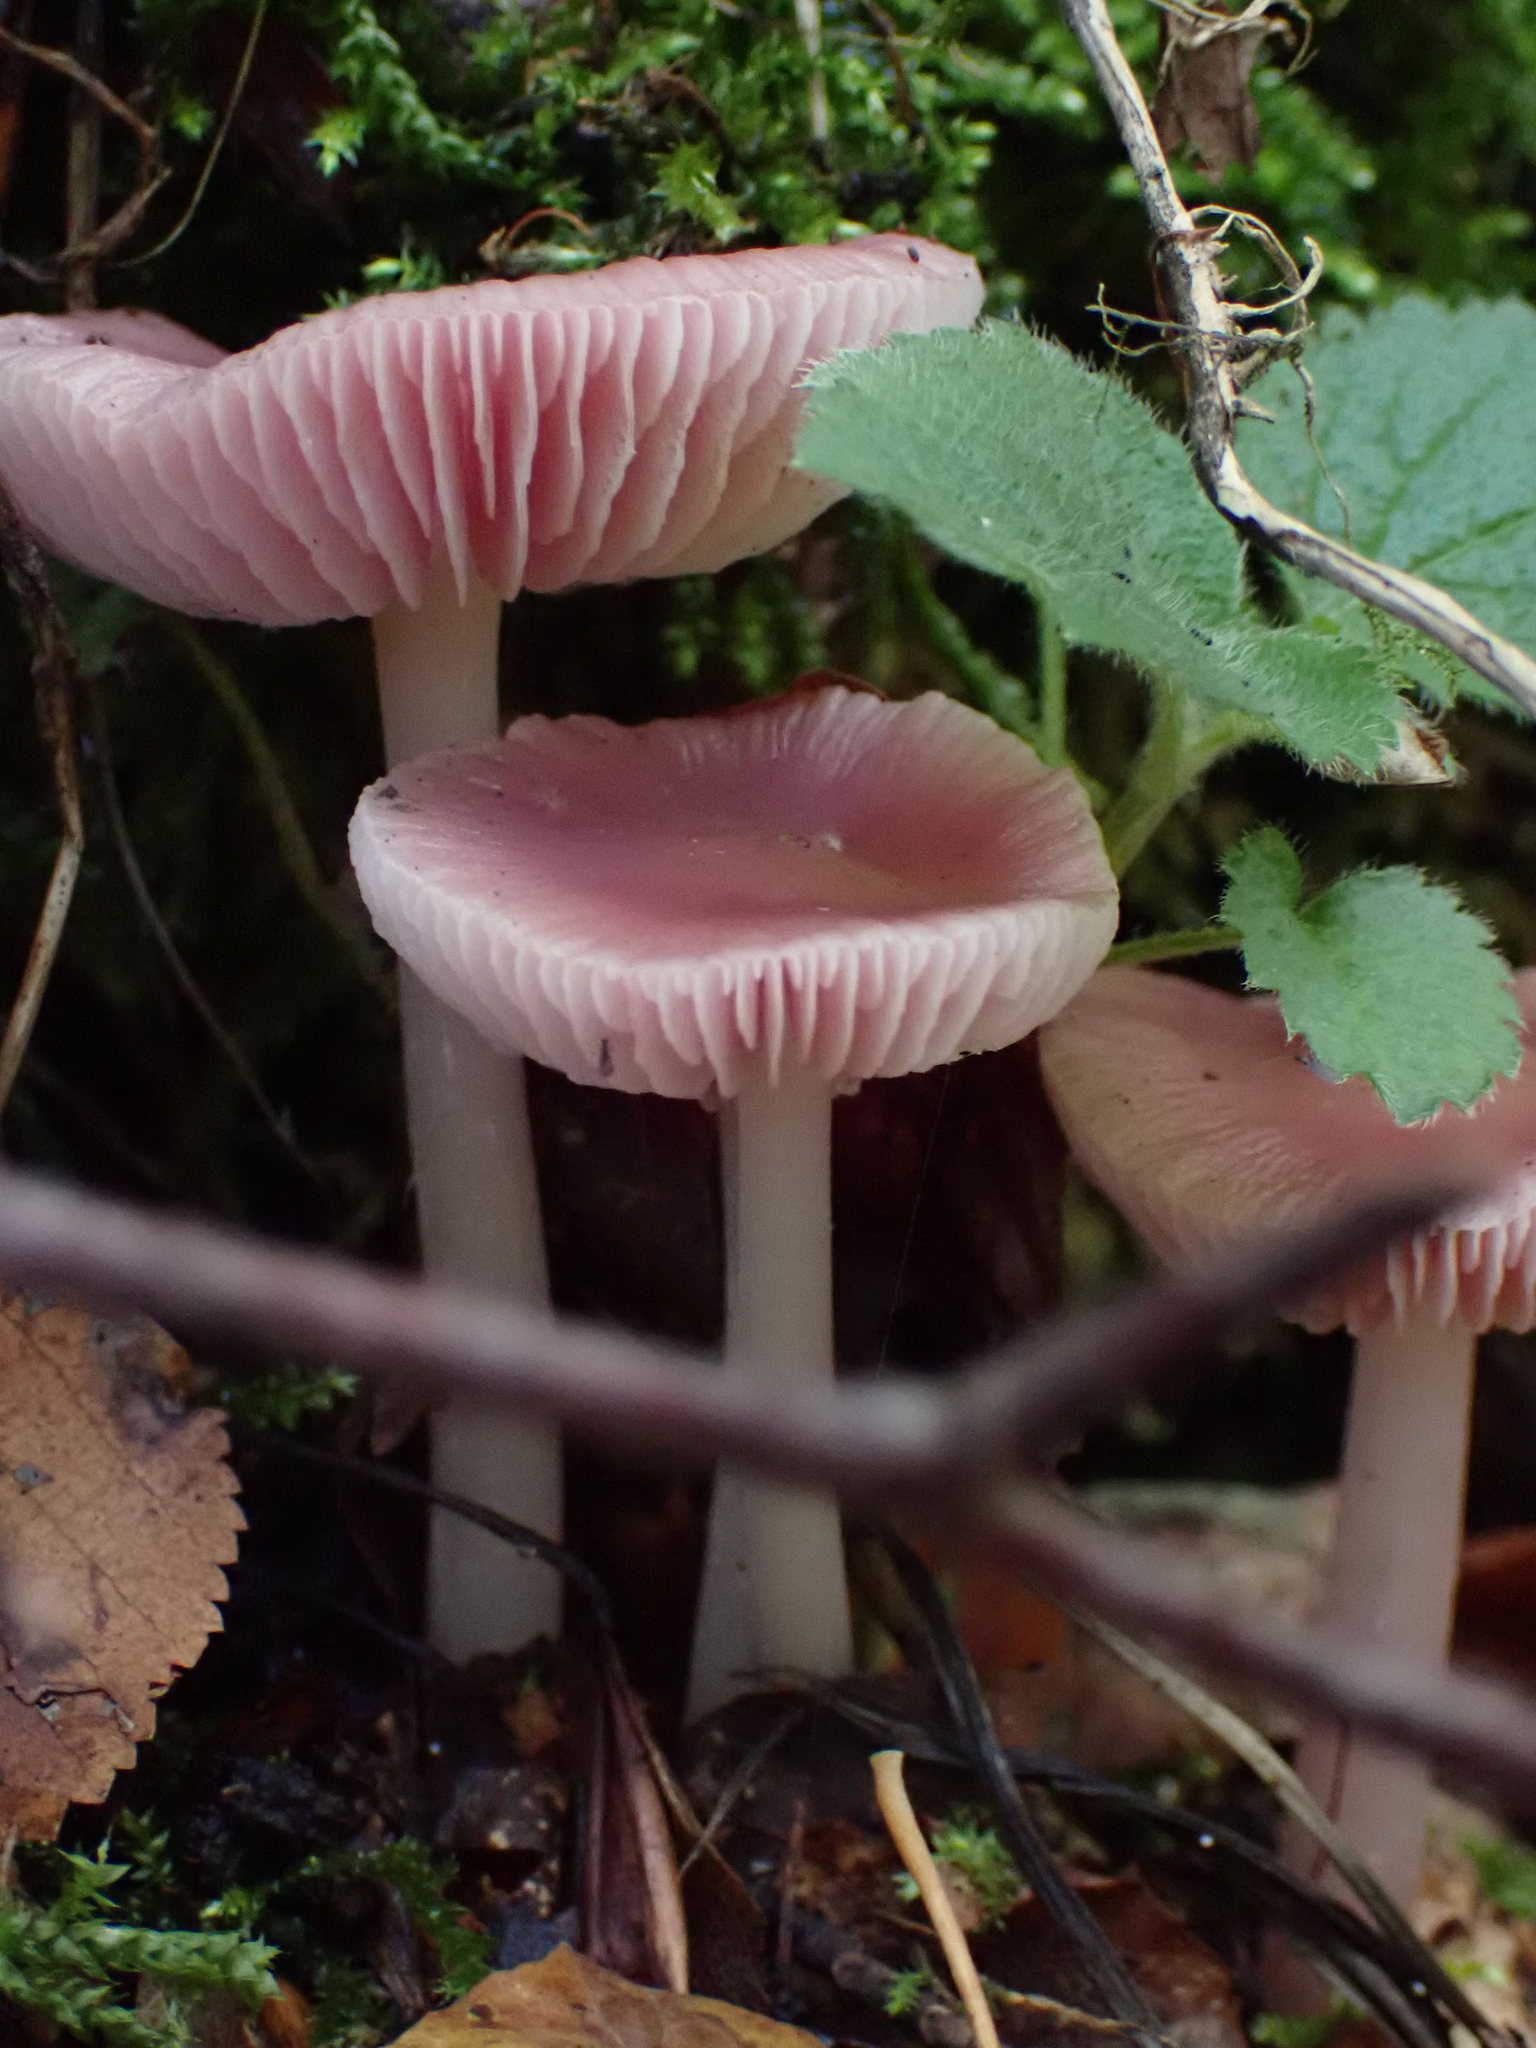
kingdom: Fungi
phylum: Basidiomycota
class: Agaricomycetes
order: Agaricales
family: Mycenaceae
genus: Mycena
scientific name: Mycena rosea
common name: Rosy bonnet
